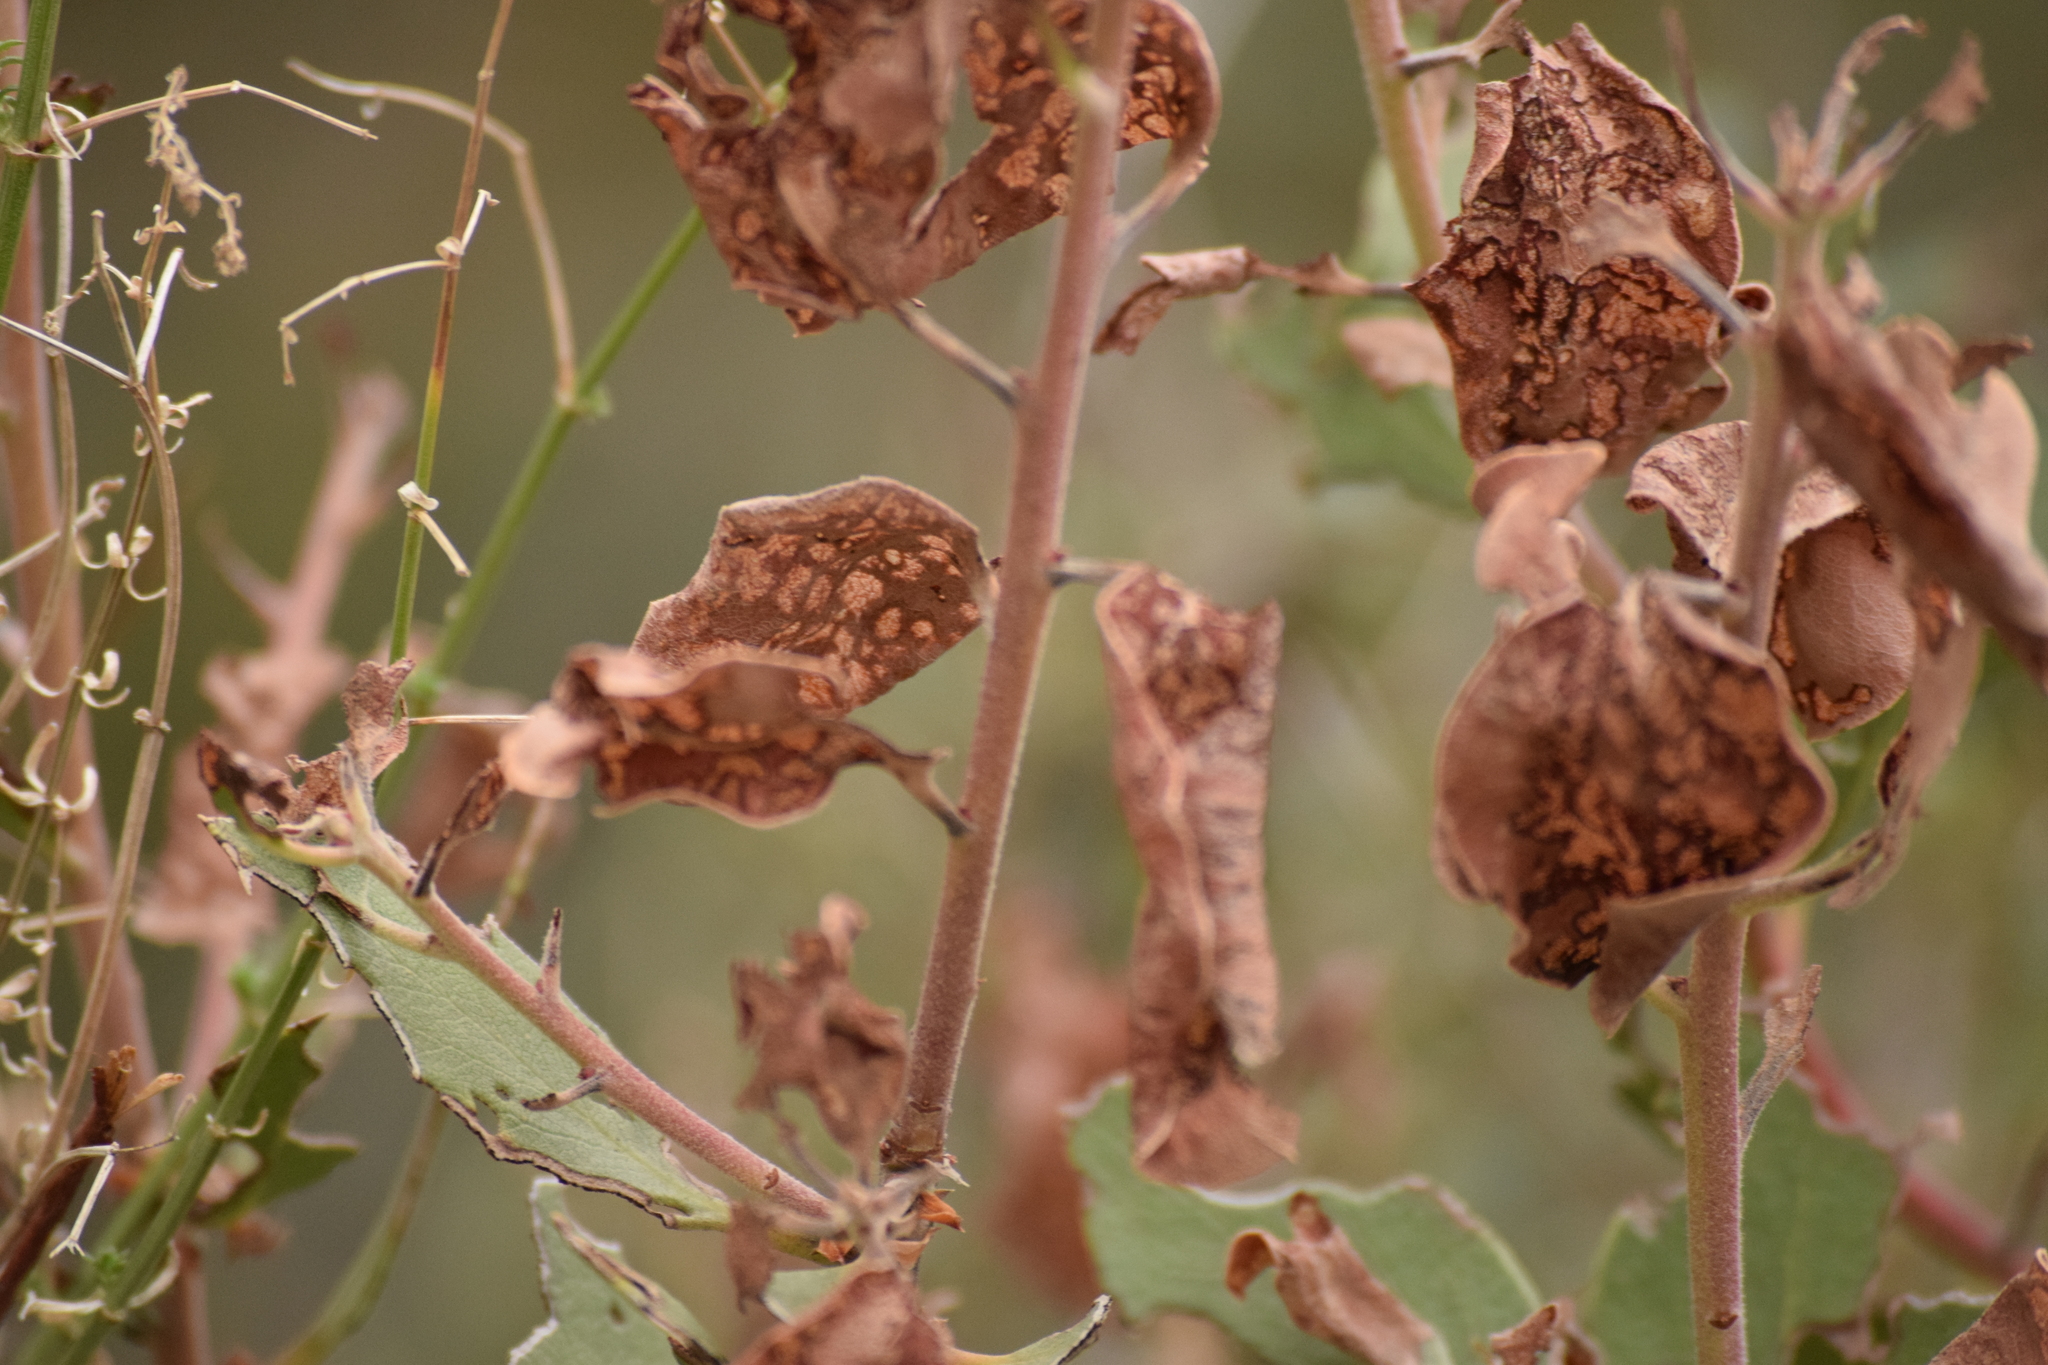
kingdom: Plantae
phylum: Tracheophyta
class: Magnoliopsida
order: Ericales
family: Ericaceae
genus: Arctostaphylos
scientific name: Arctostaphylos glandulosa
